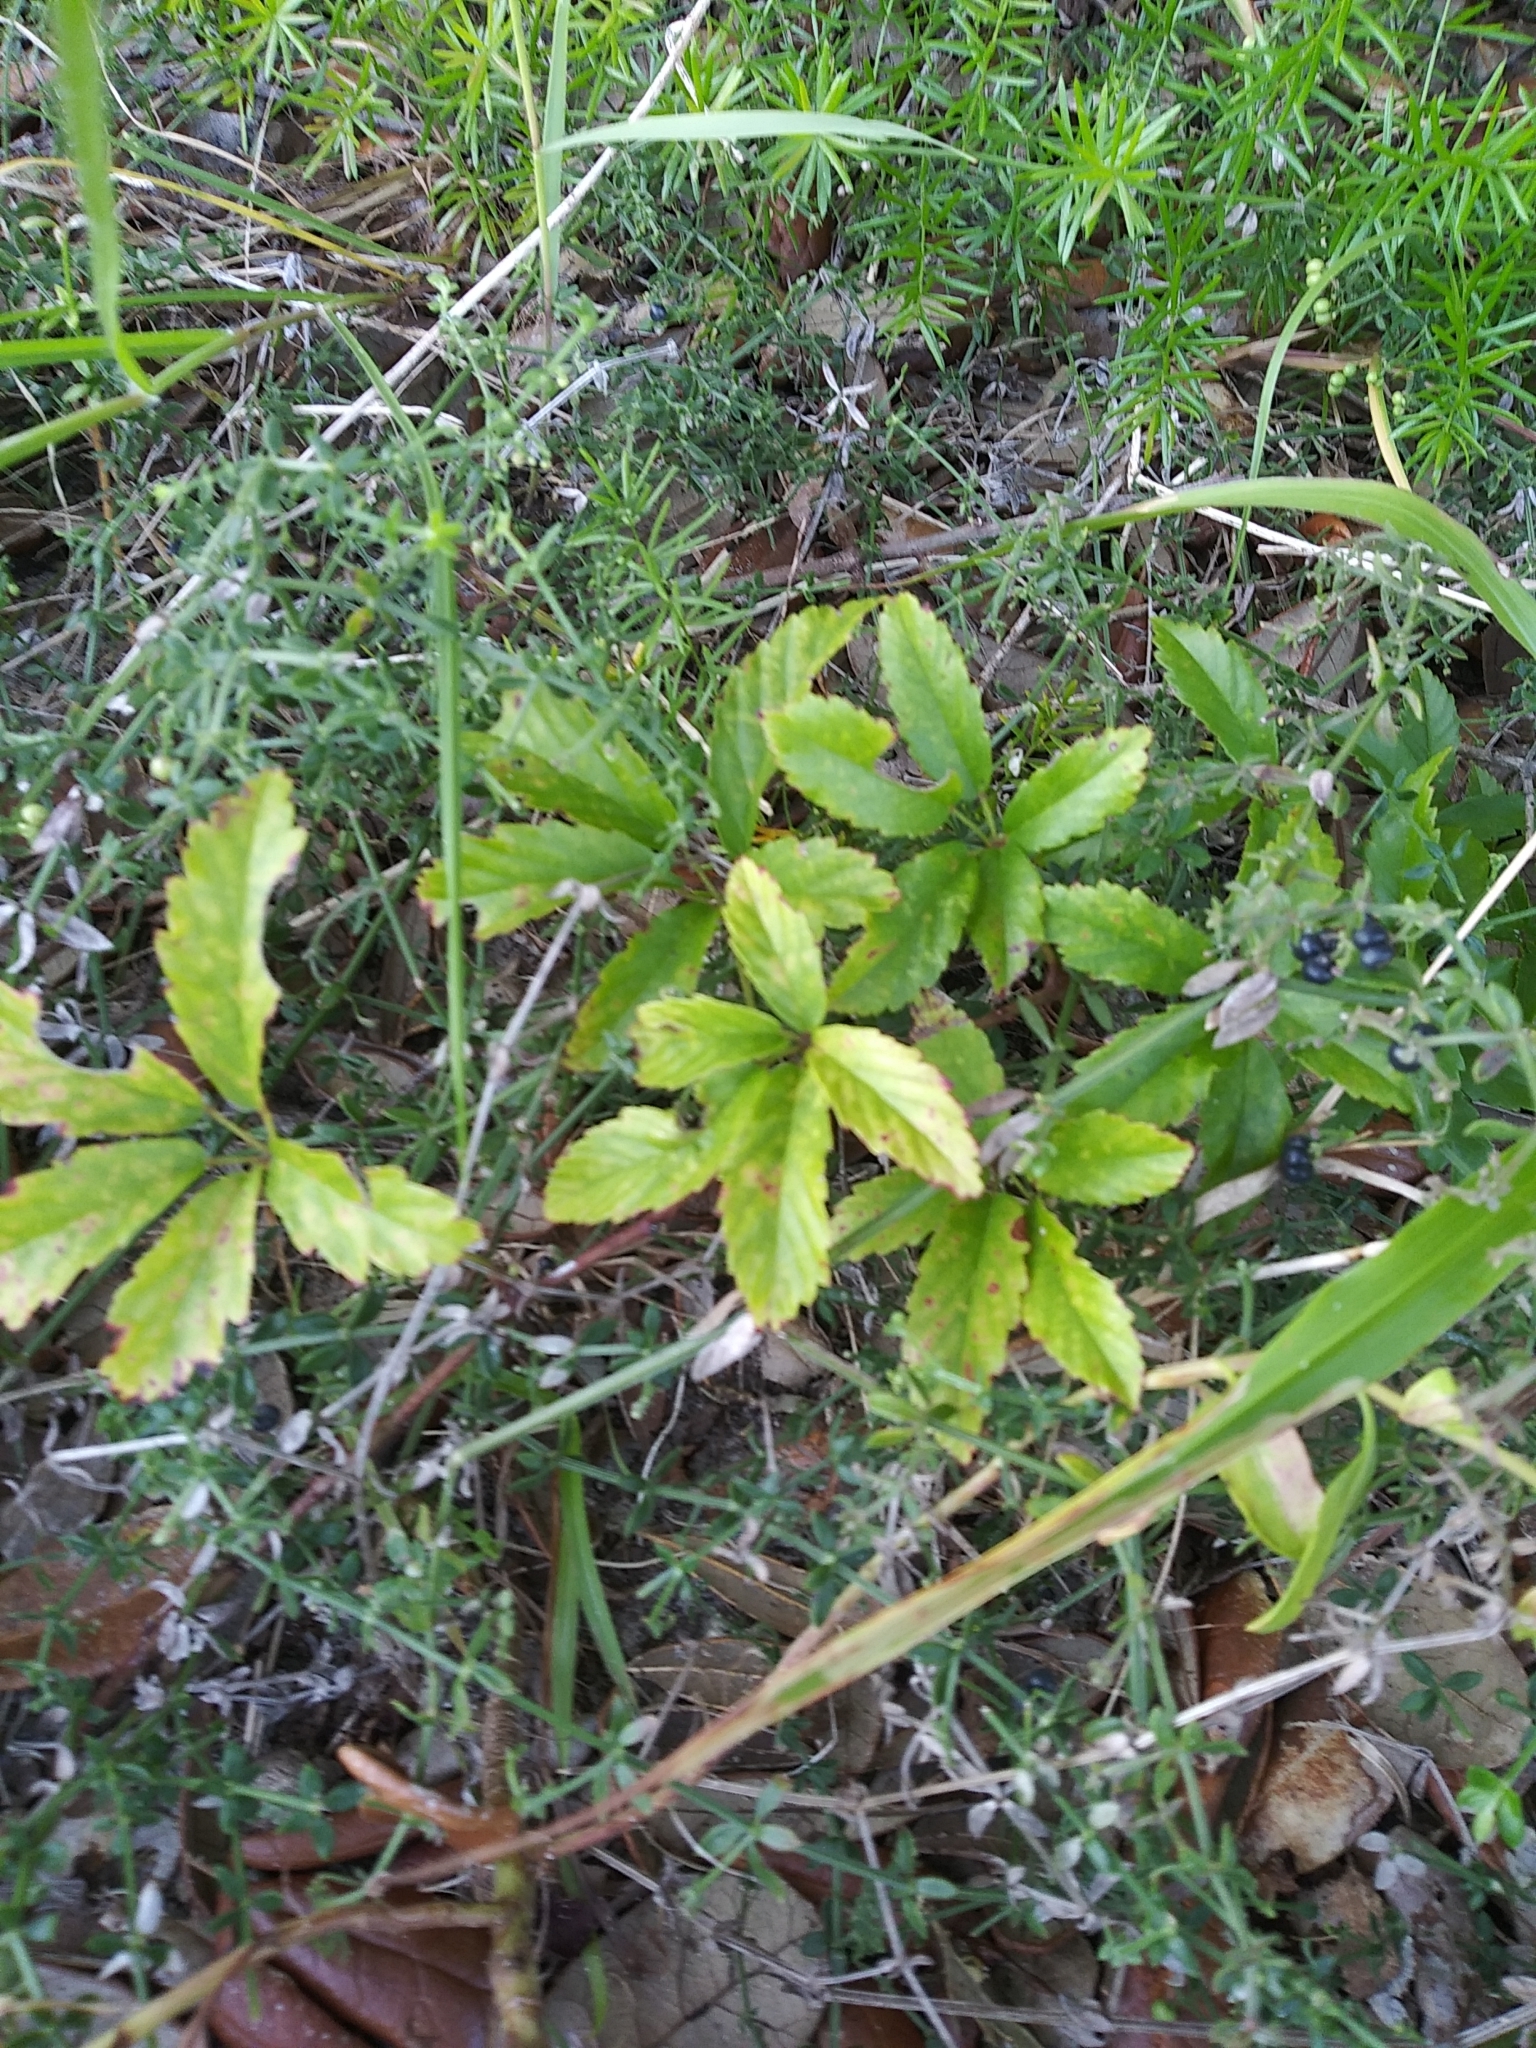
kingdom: Plantae
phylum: Tracheophyta
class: Magnoliopsida
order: Rosales
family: Rosaceae
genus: Rubus
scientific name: Rubus trivialis
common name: Southern dewberry
